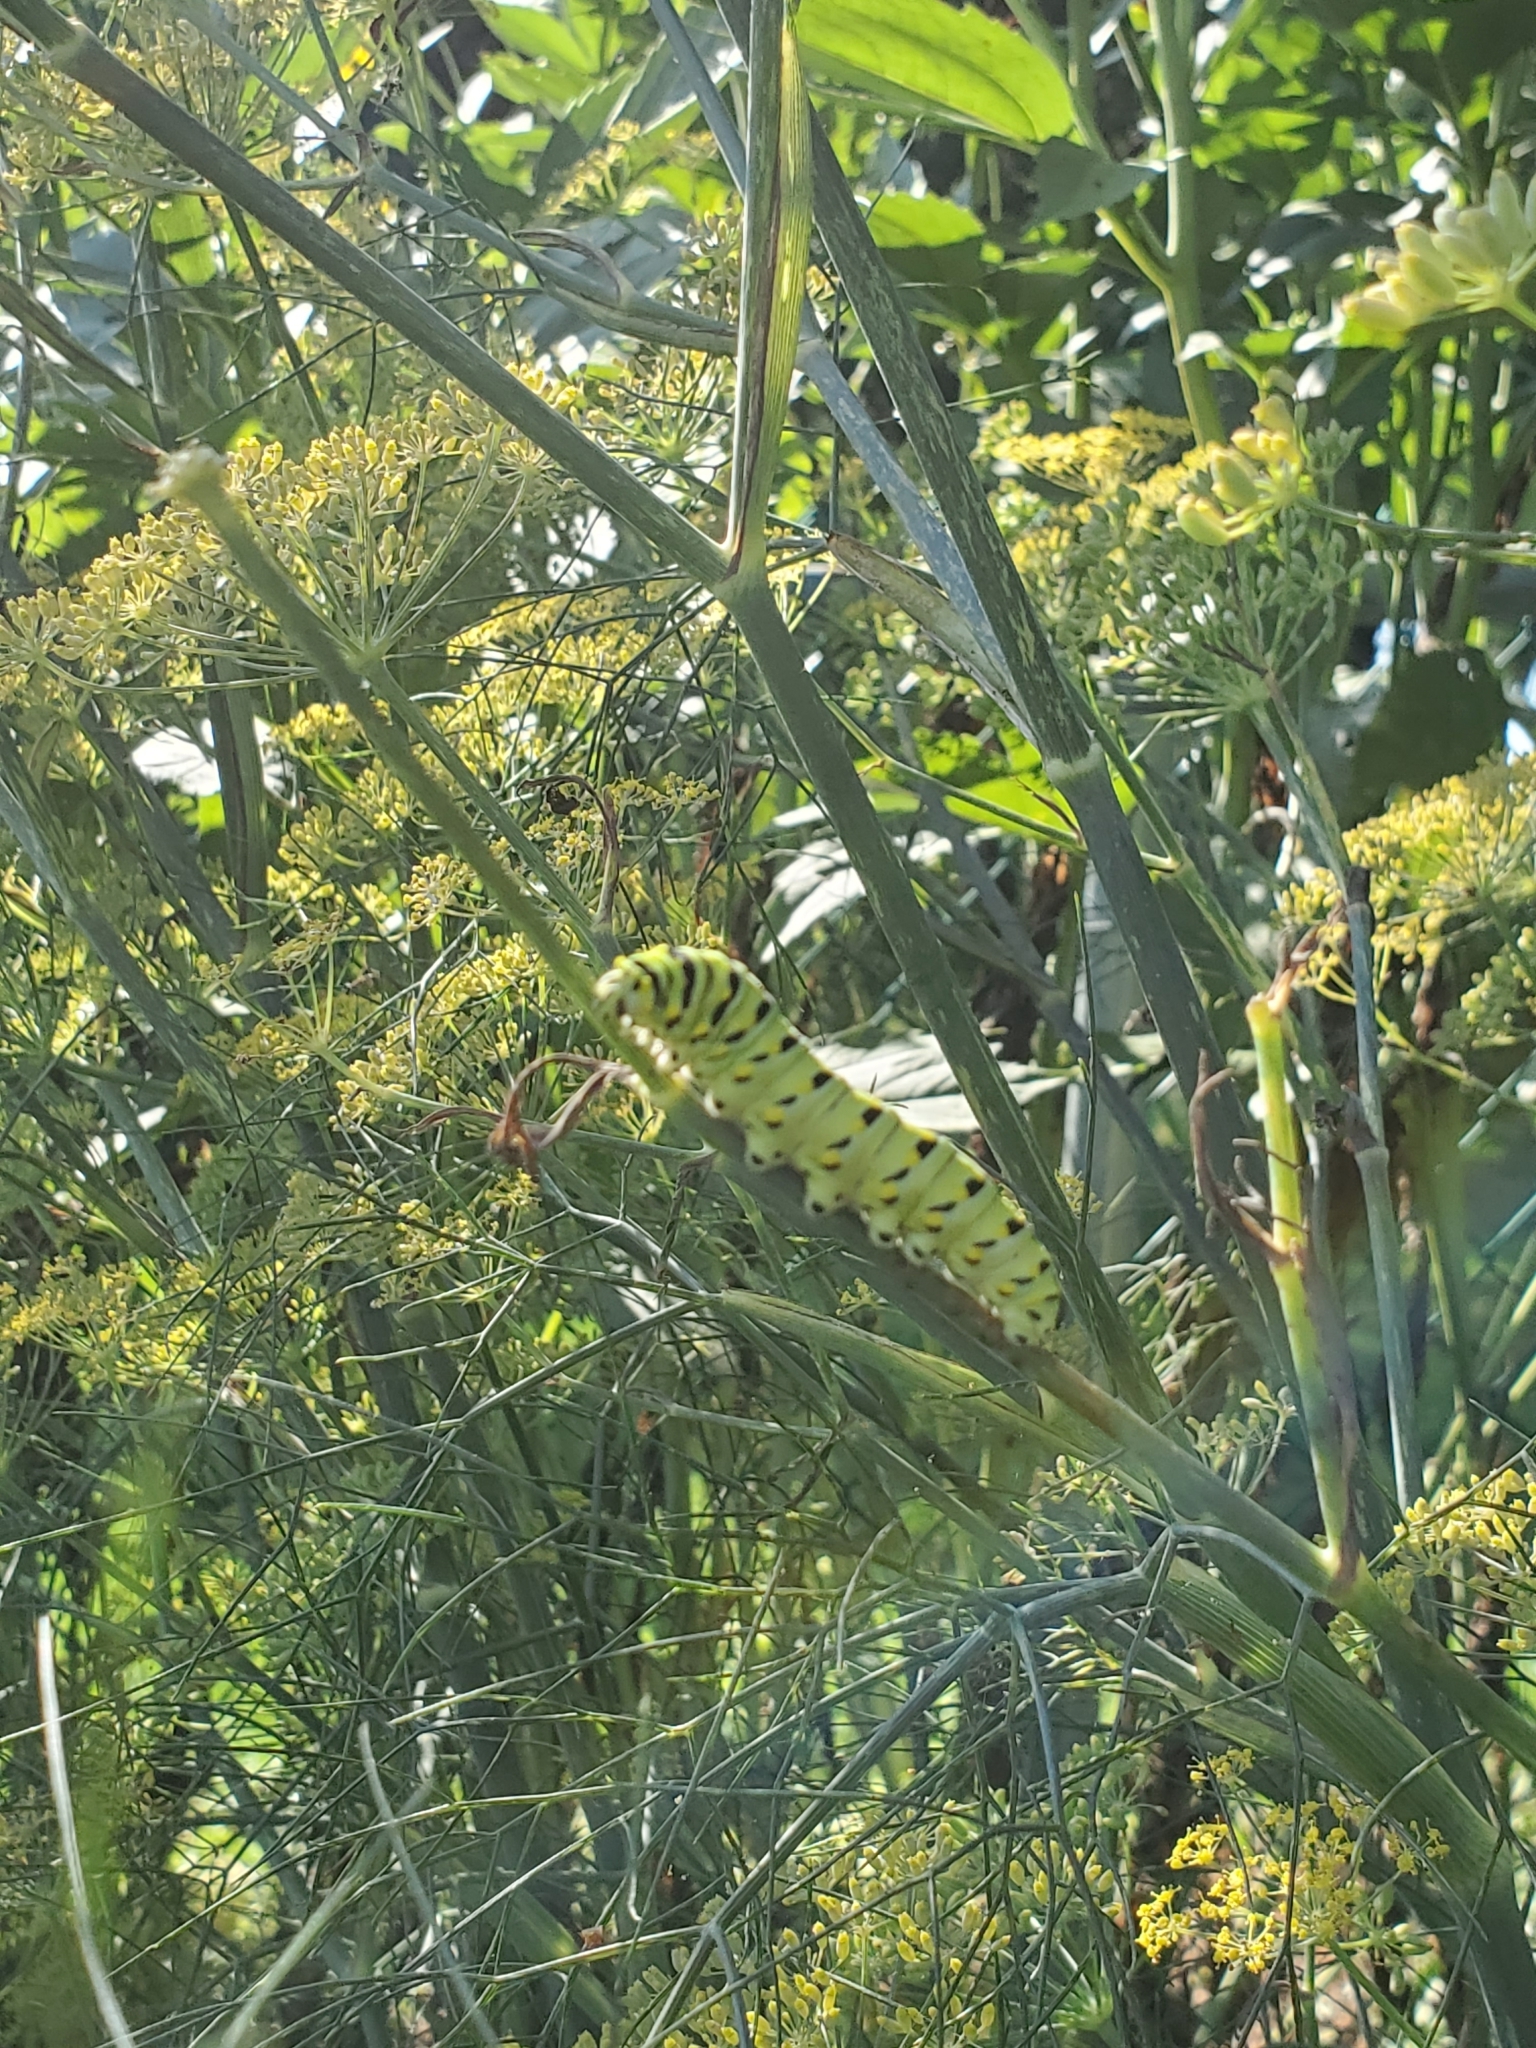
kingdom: Animalia
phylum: Arthropoda
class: Insecta
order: Lepidoptera
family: Papilionidae
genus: Papilio
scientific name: Papilio polyxenes
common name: Black swallowtail
